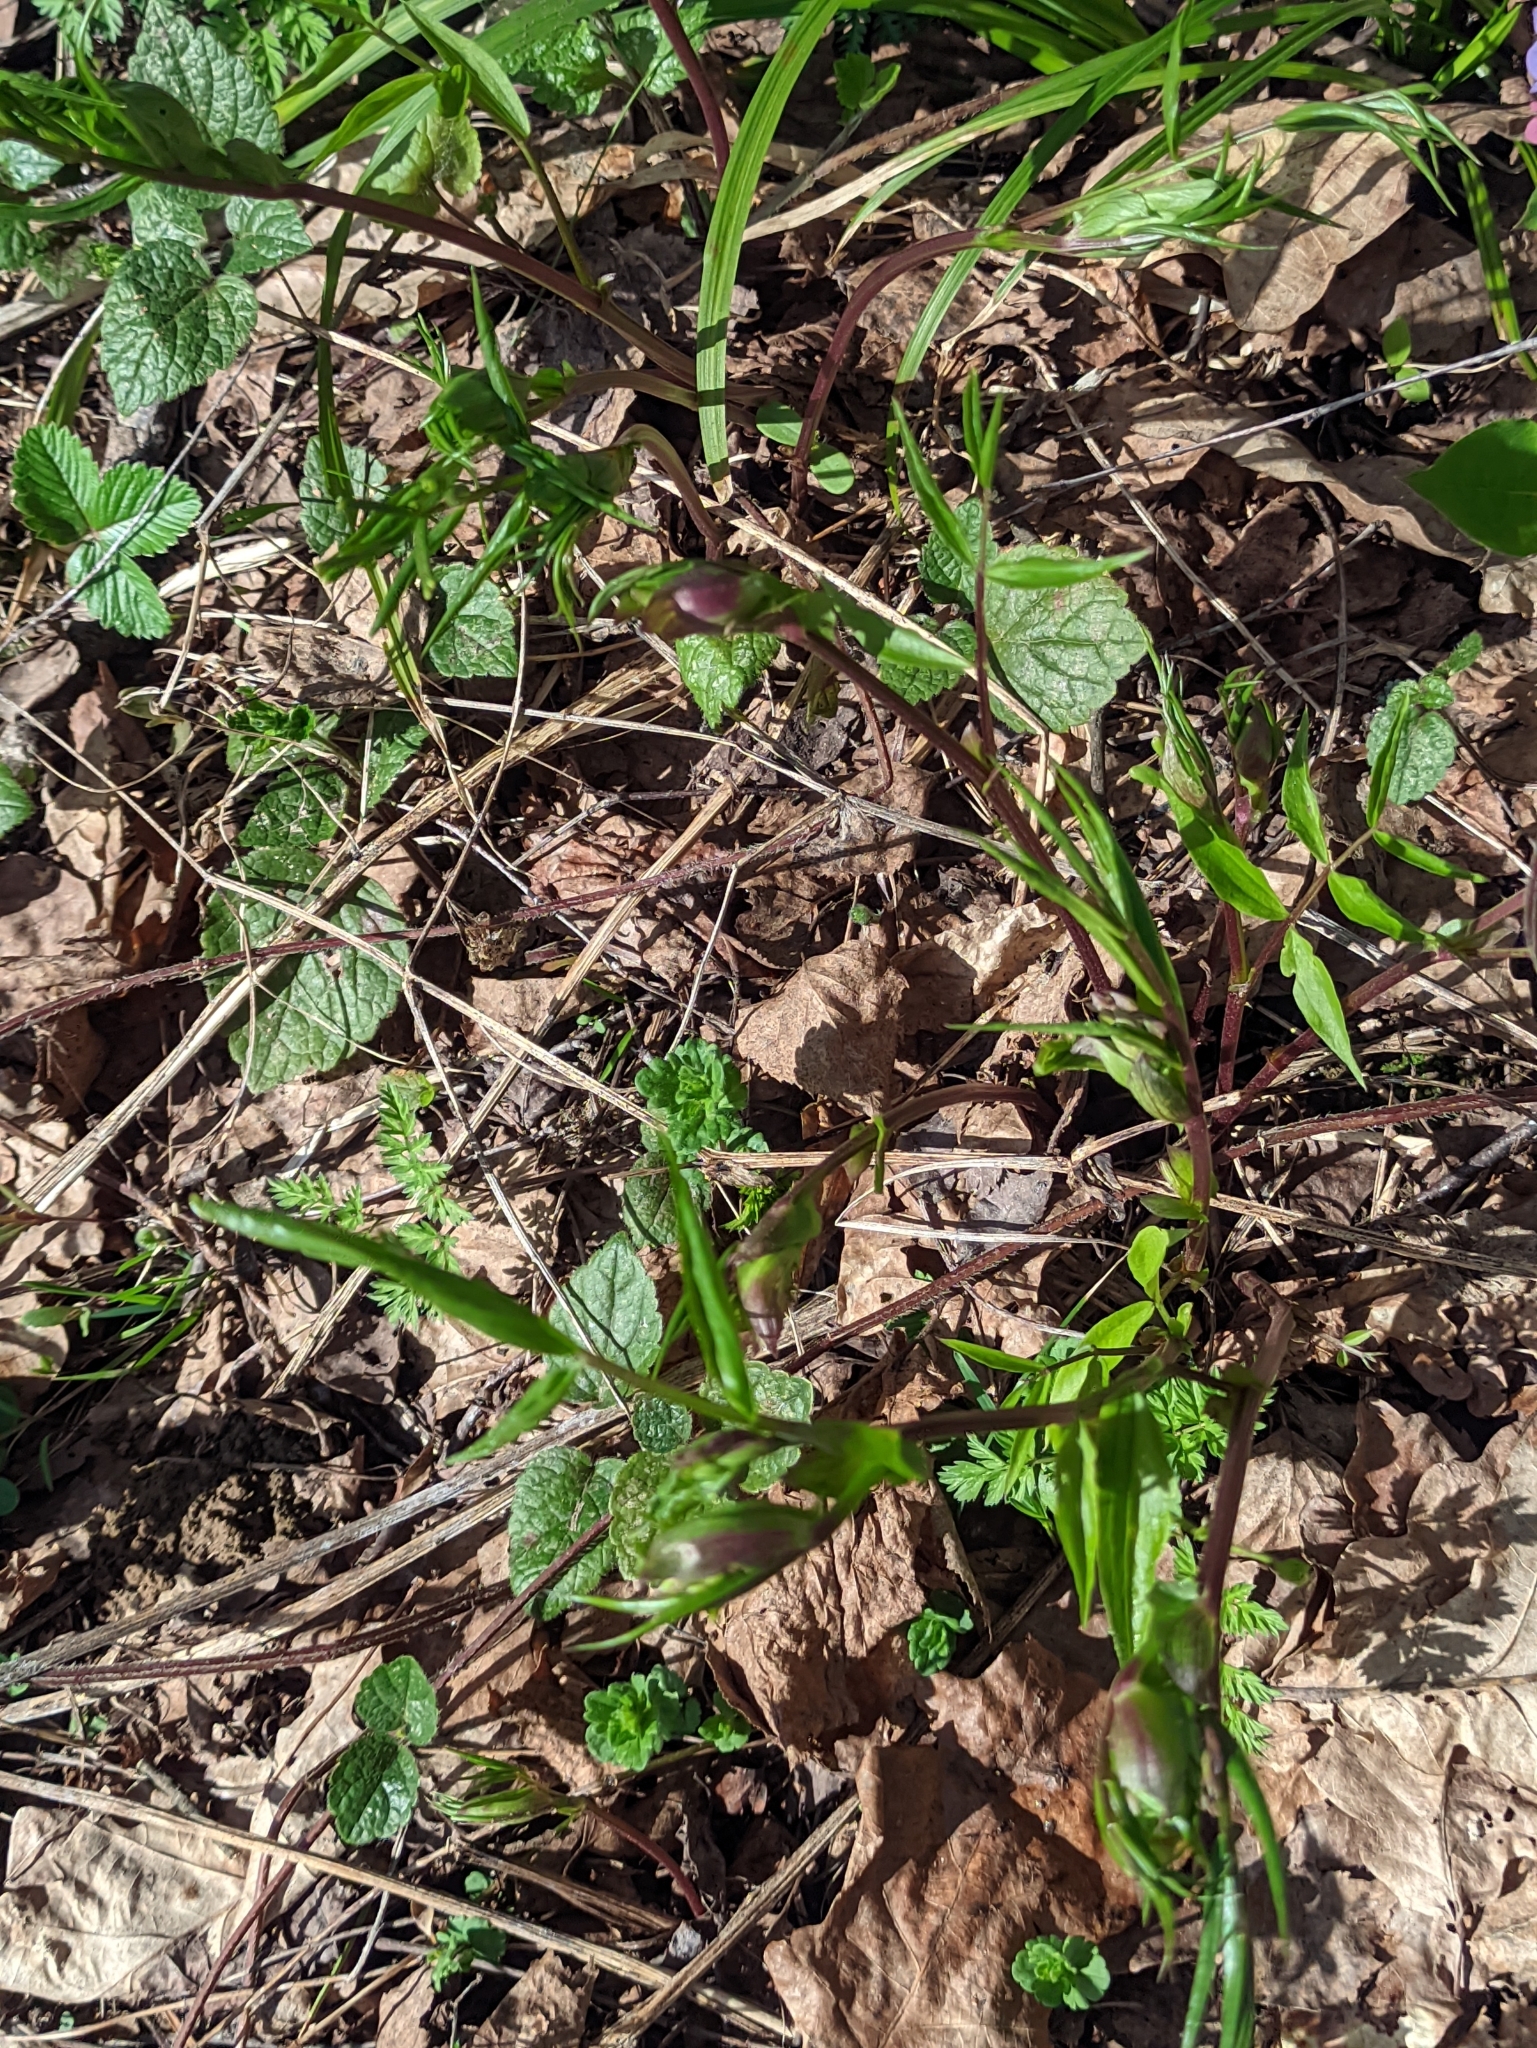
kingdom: Plantae
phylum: Tracheophyta
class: Magnoliopsida
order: Fabales
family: Fabaceae
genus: Lathyrus
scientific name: Lathyrus vernus
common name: Spring pea
